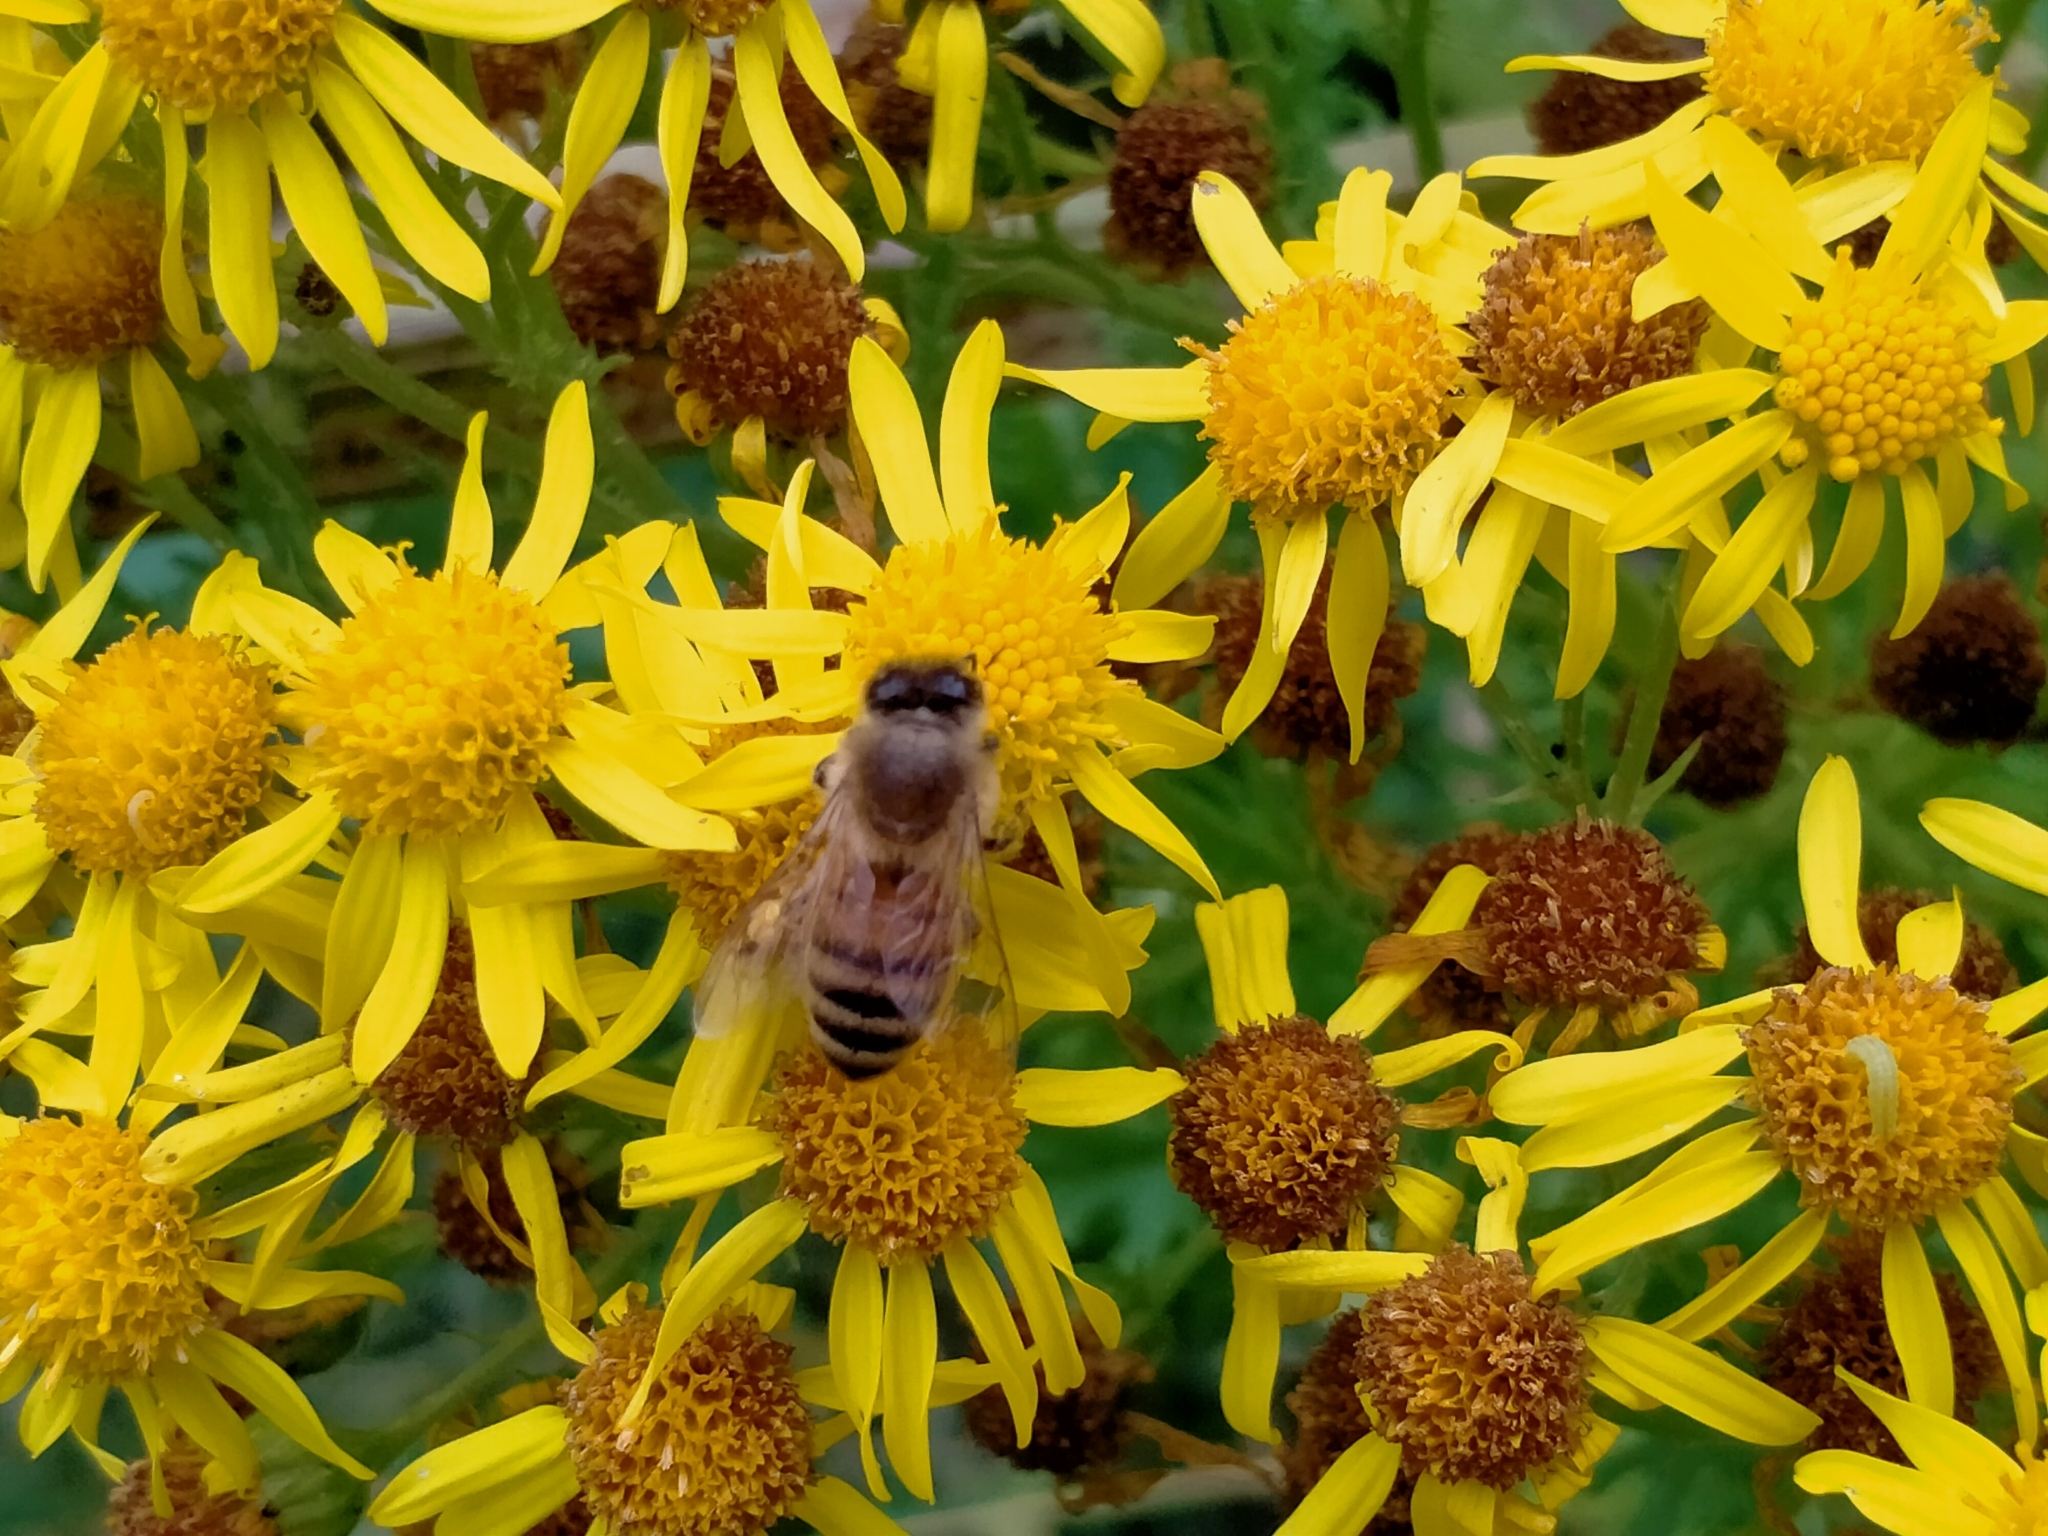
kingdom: Animalia
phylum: Arthropoda
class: Insecta
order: Hymenoptera
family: Apidae
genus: Apis
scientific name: Apis mellifera
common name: Honey bee
